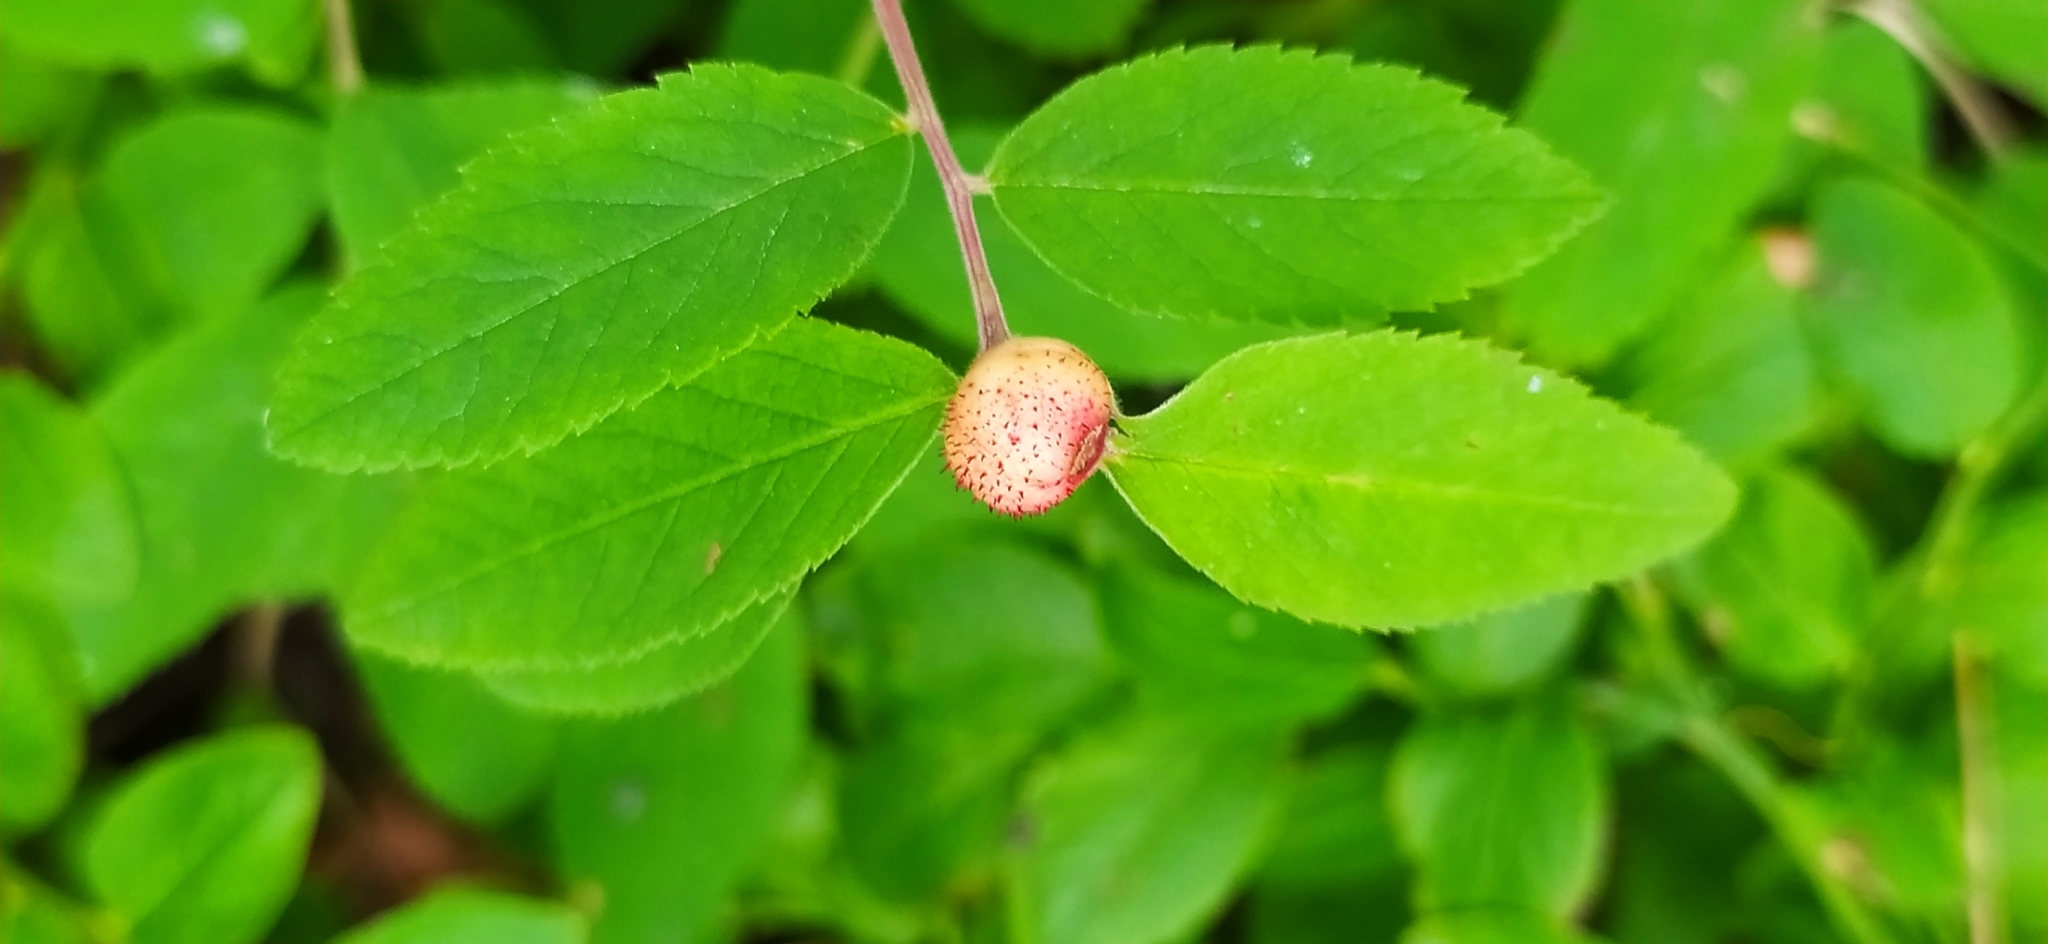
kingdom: Animalia
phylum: Arthropoda
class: Insecta
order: Hymenoptera
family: Cynipidae
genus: Diplolepis
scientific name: Diplolepis mayri
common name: Gall wasp
